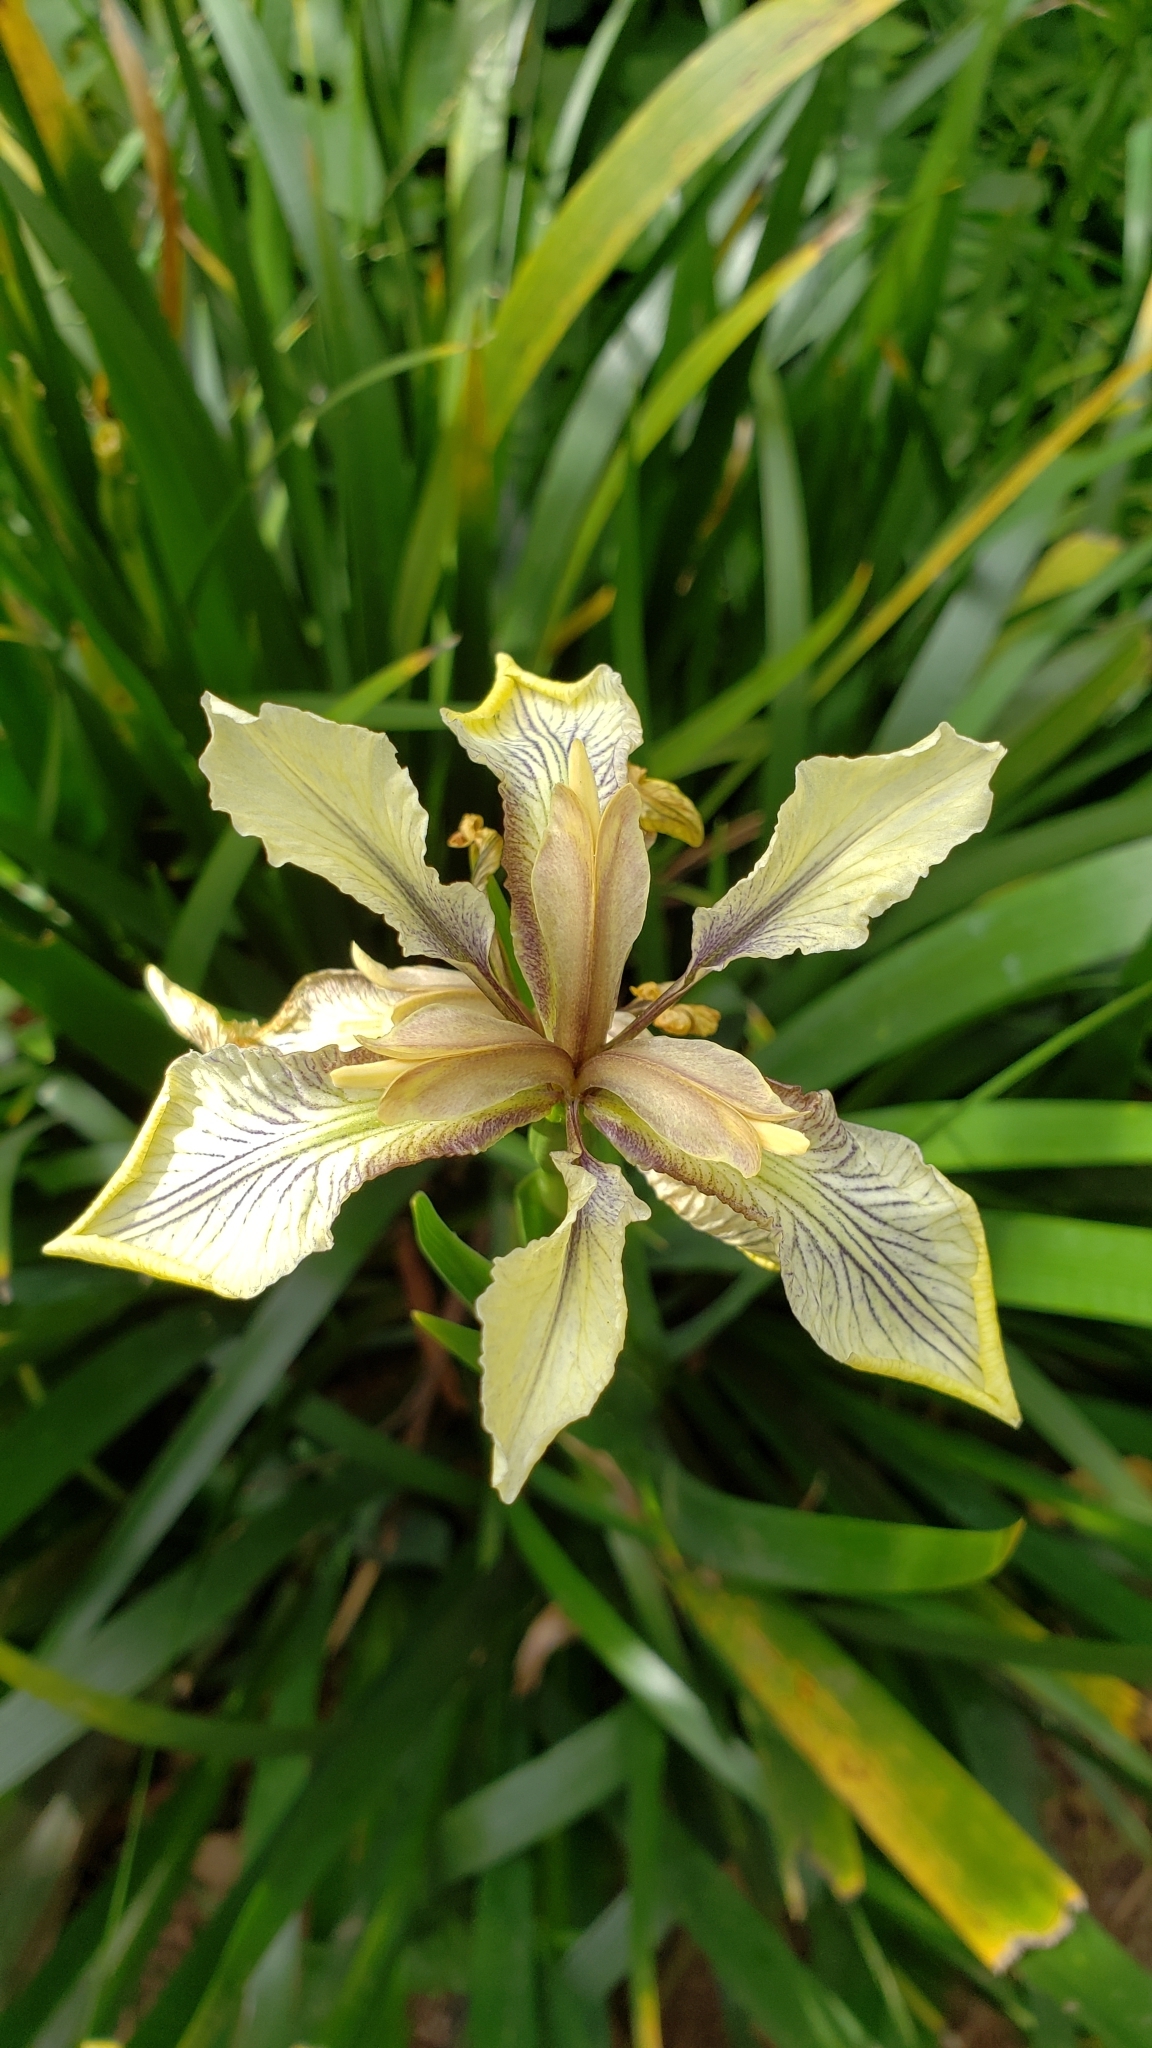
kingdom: Plantae
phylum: Tracheophyta
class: Liliopsida
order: Asparagales
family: Iridaceae
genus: Iris
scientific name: Iris foetidissima
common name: Stinking iris
